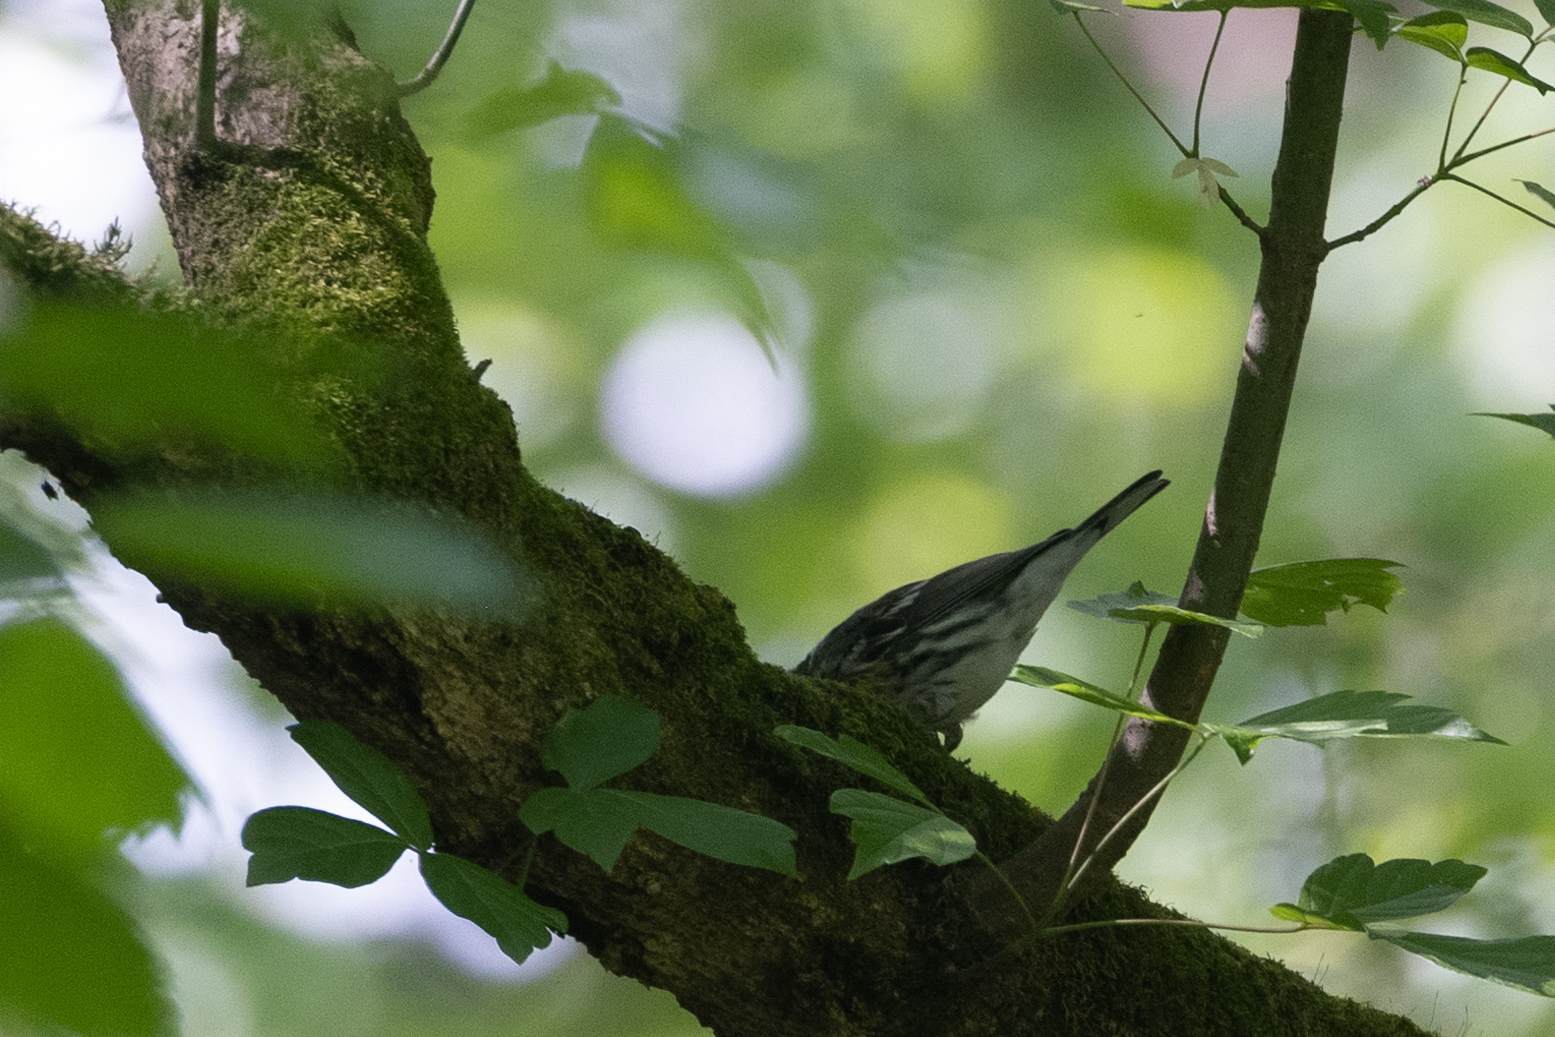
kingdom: Animalia
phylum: Chordata
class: Aves
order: Passeriformes
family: Parulidae
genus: Setophaga
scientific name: Setophaga dominica
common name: Yellow-throated warbler
